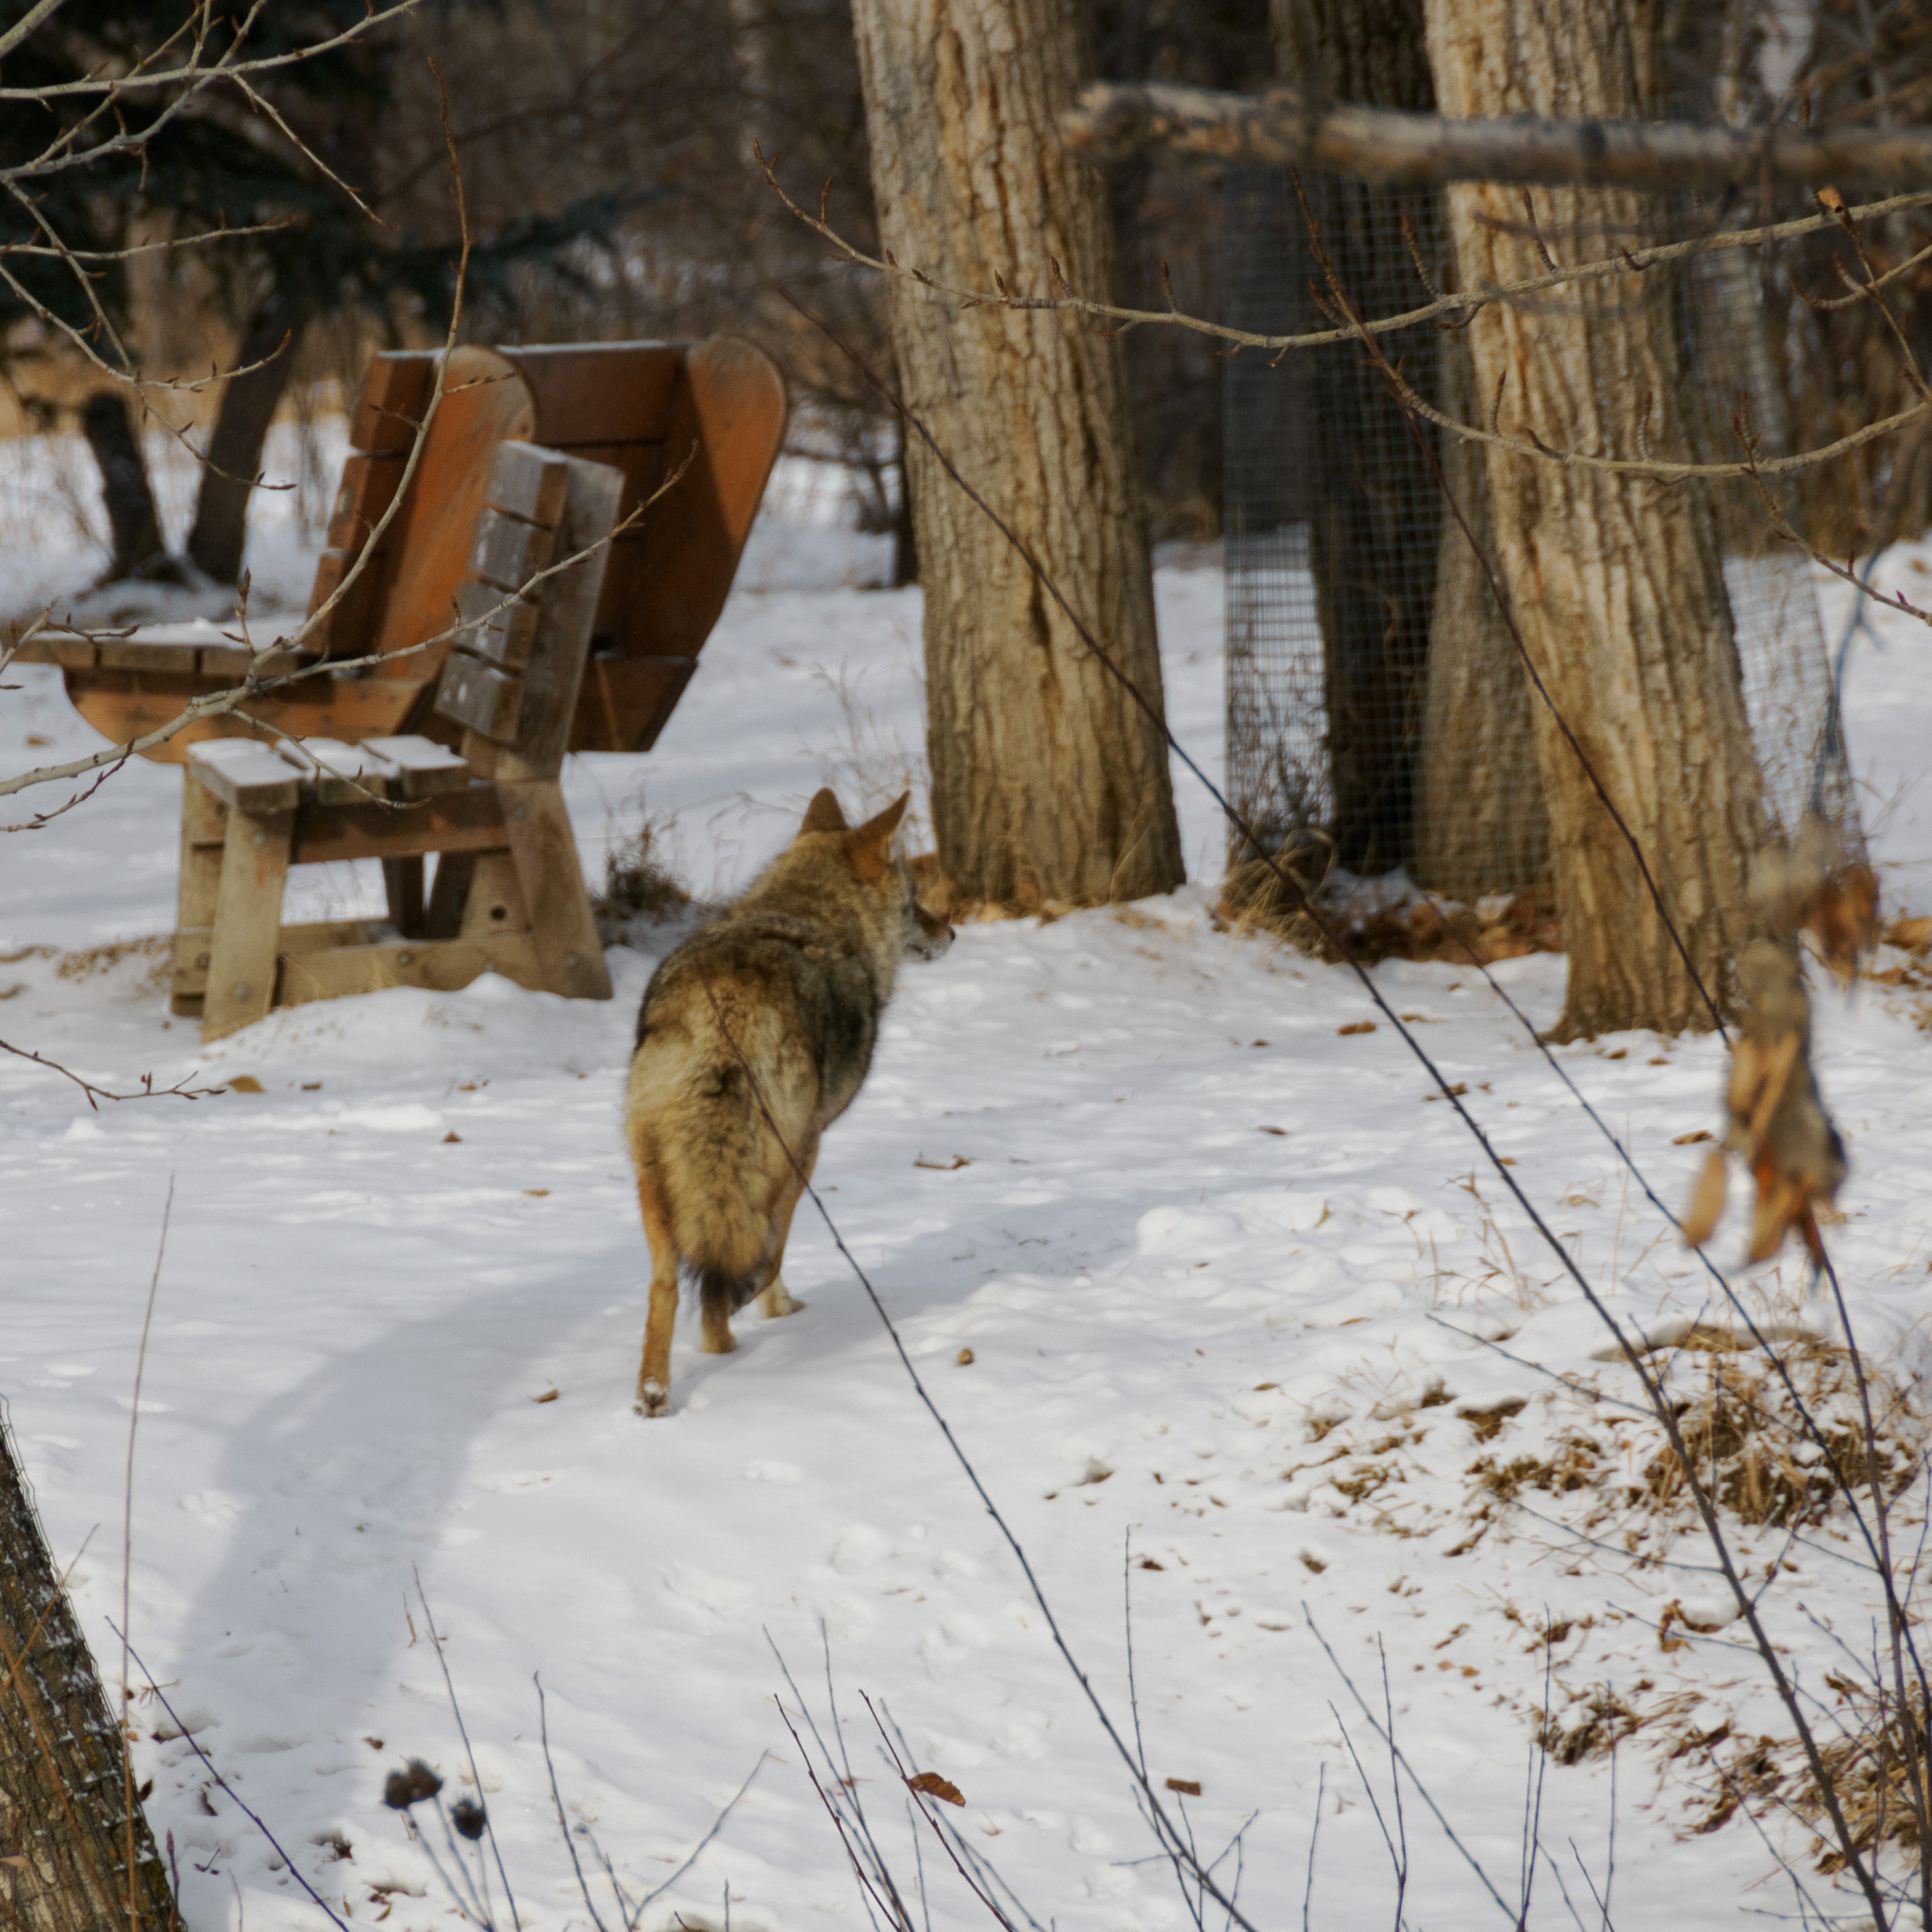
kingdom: Animalia
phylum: Chordata
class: Mammalia
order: Carnivora
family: Canidae
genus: Canis
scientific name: Canis latrans
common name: Coyote
